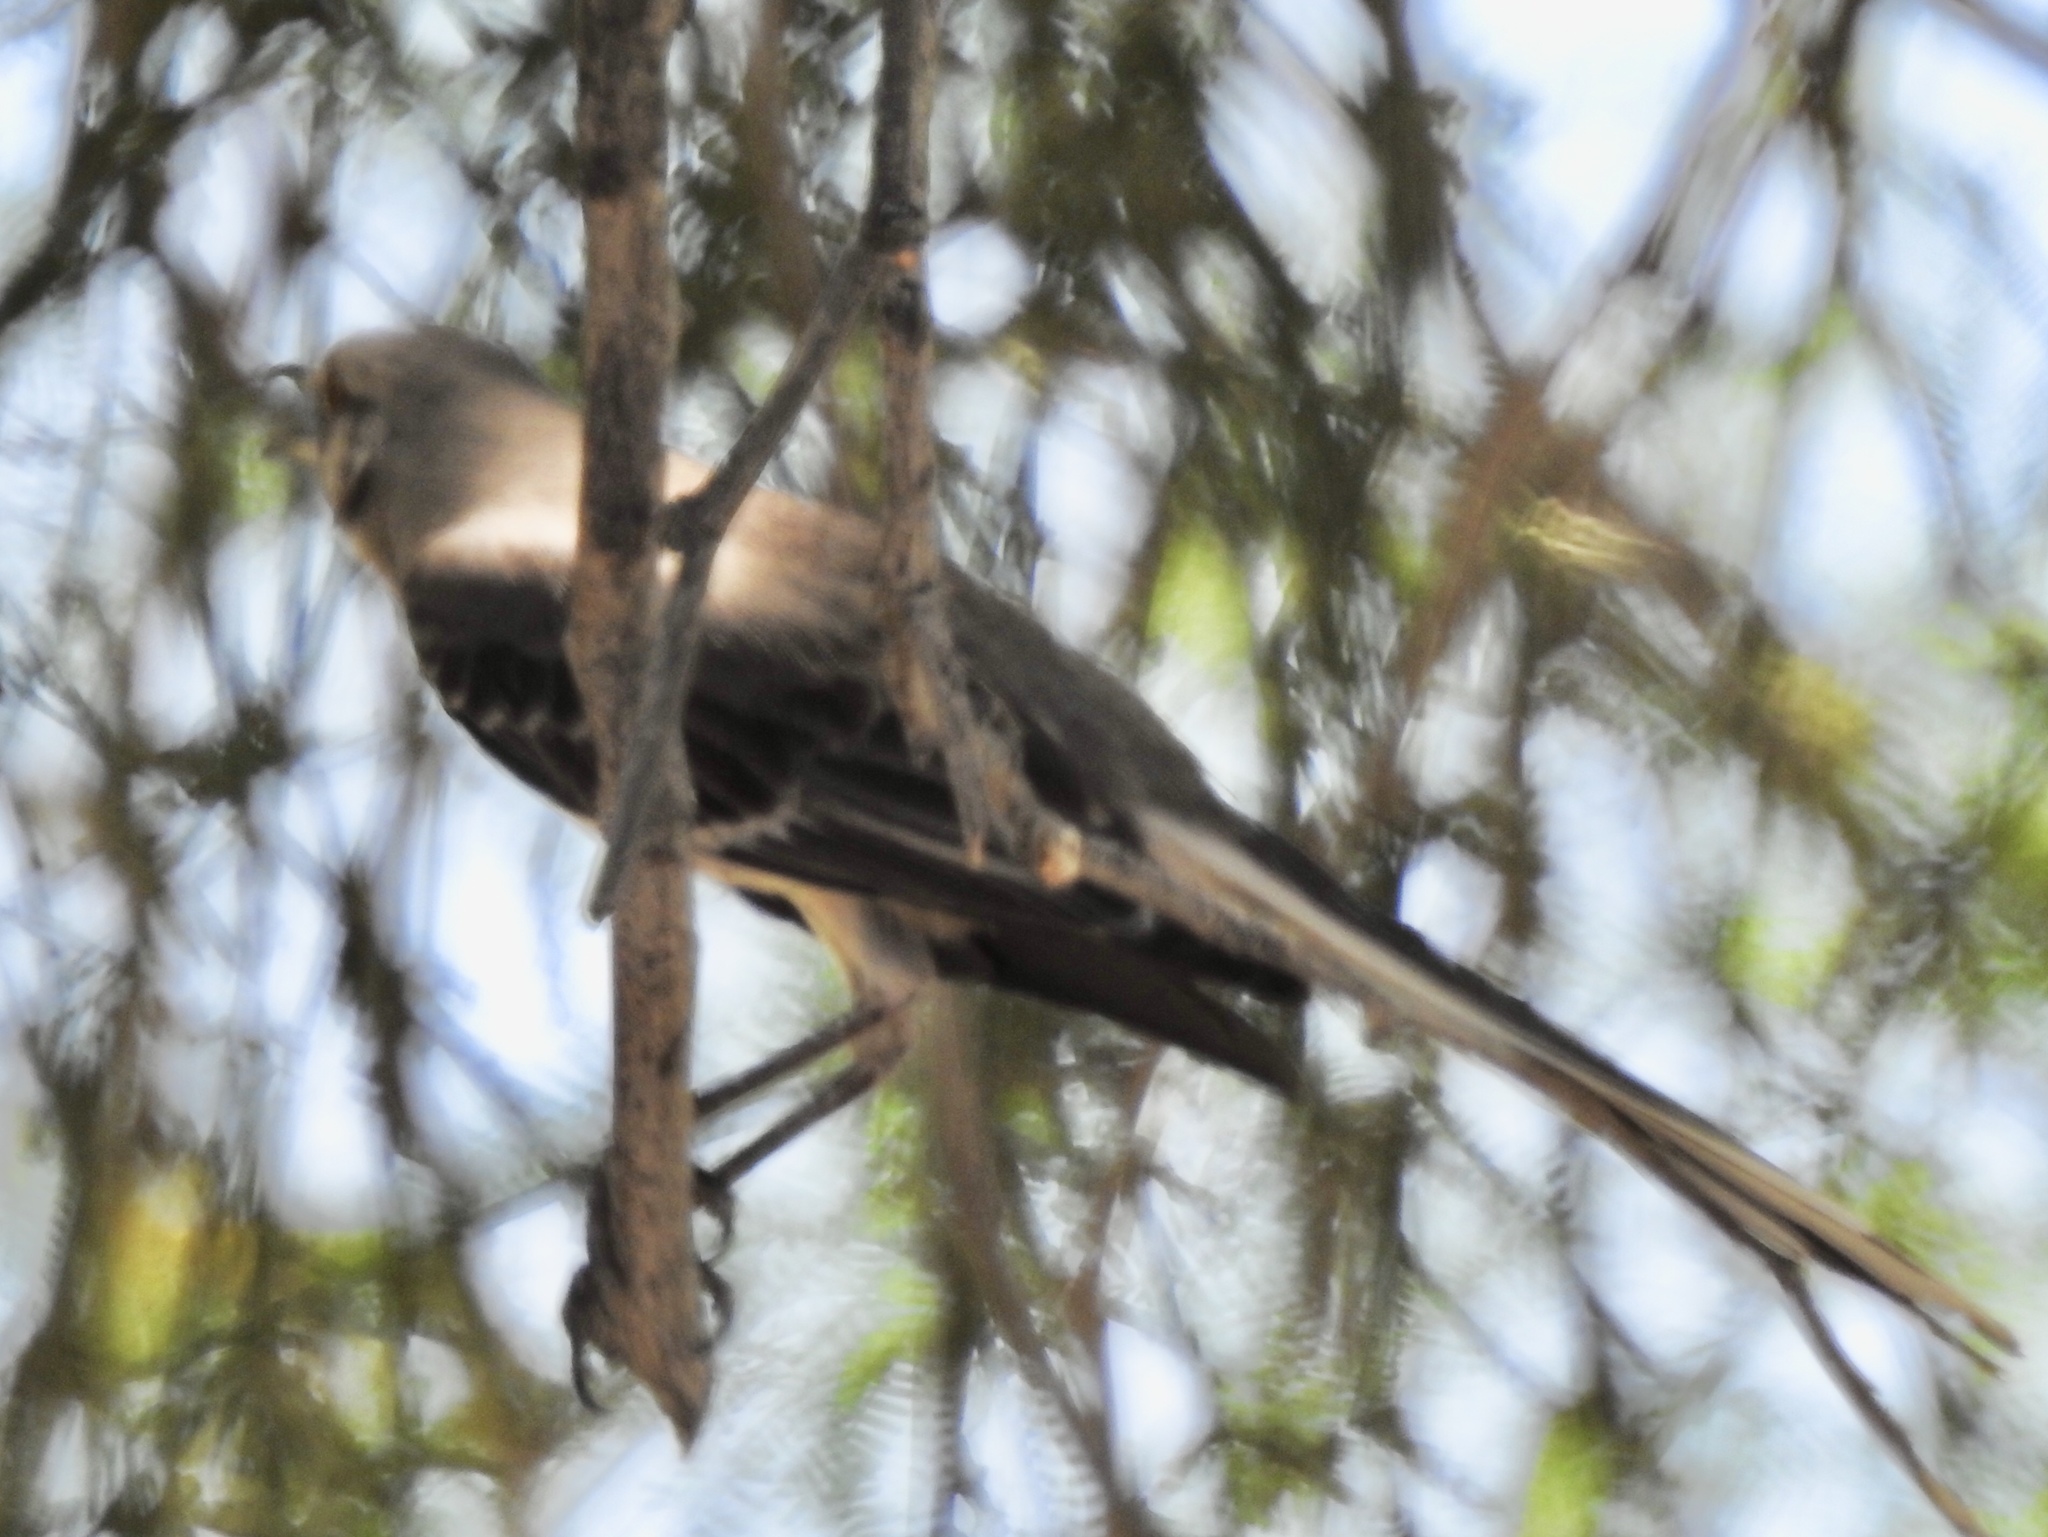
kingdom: Animalia
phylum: Chordata
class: Aves
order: Passeriformes
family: Mimidae
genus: Mimus
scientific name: Mimus polyglottos
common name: Northern mockingbird
